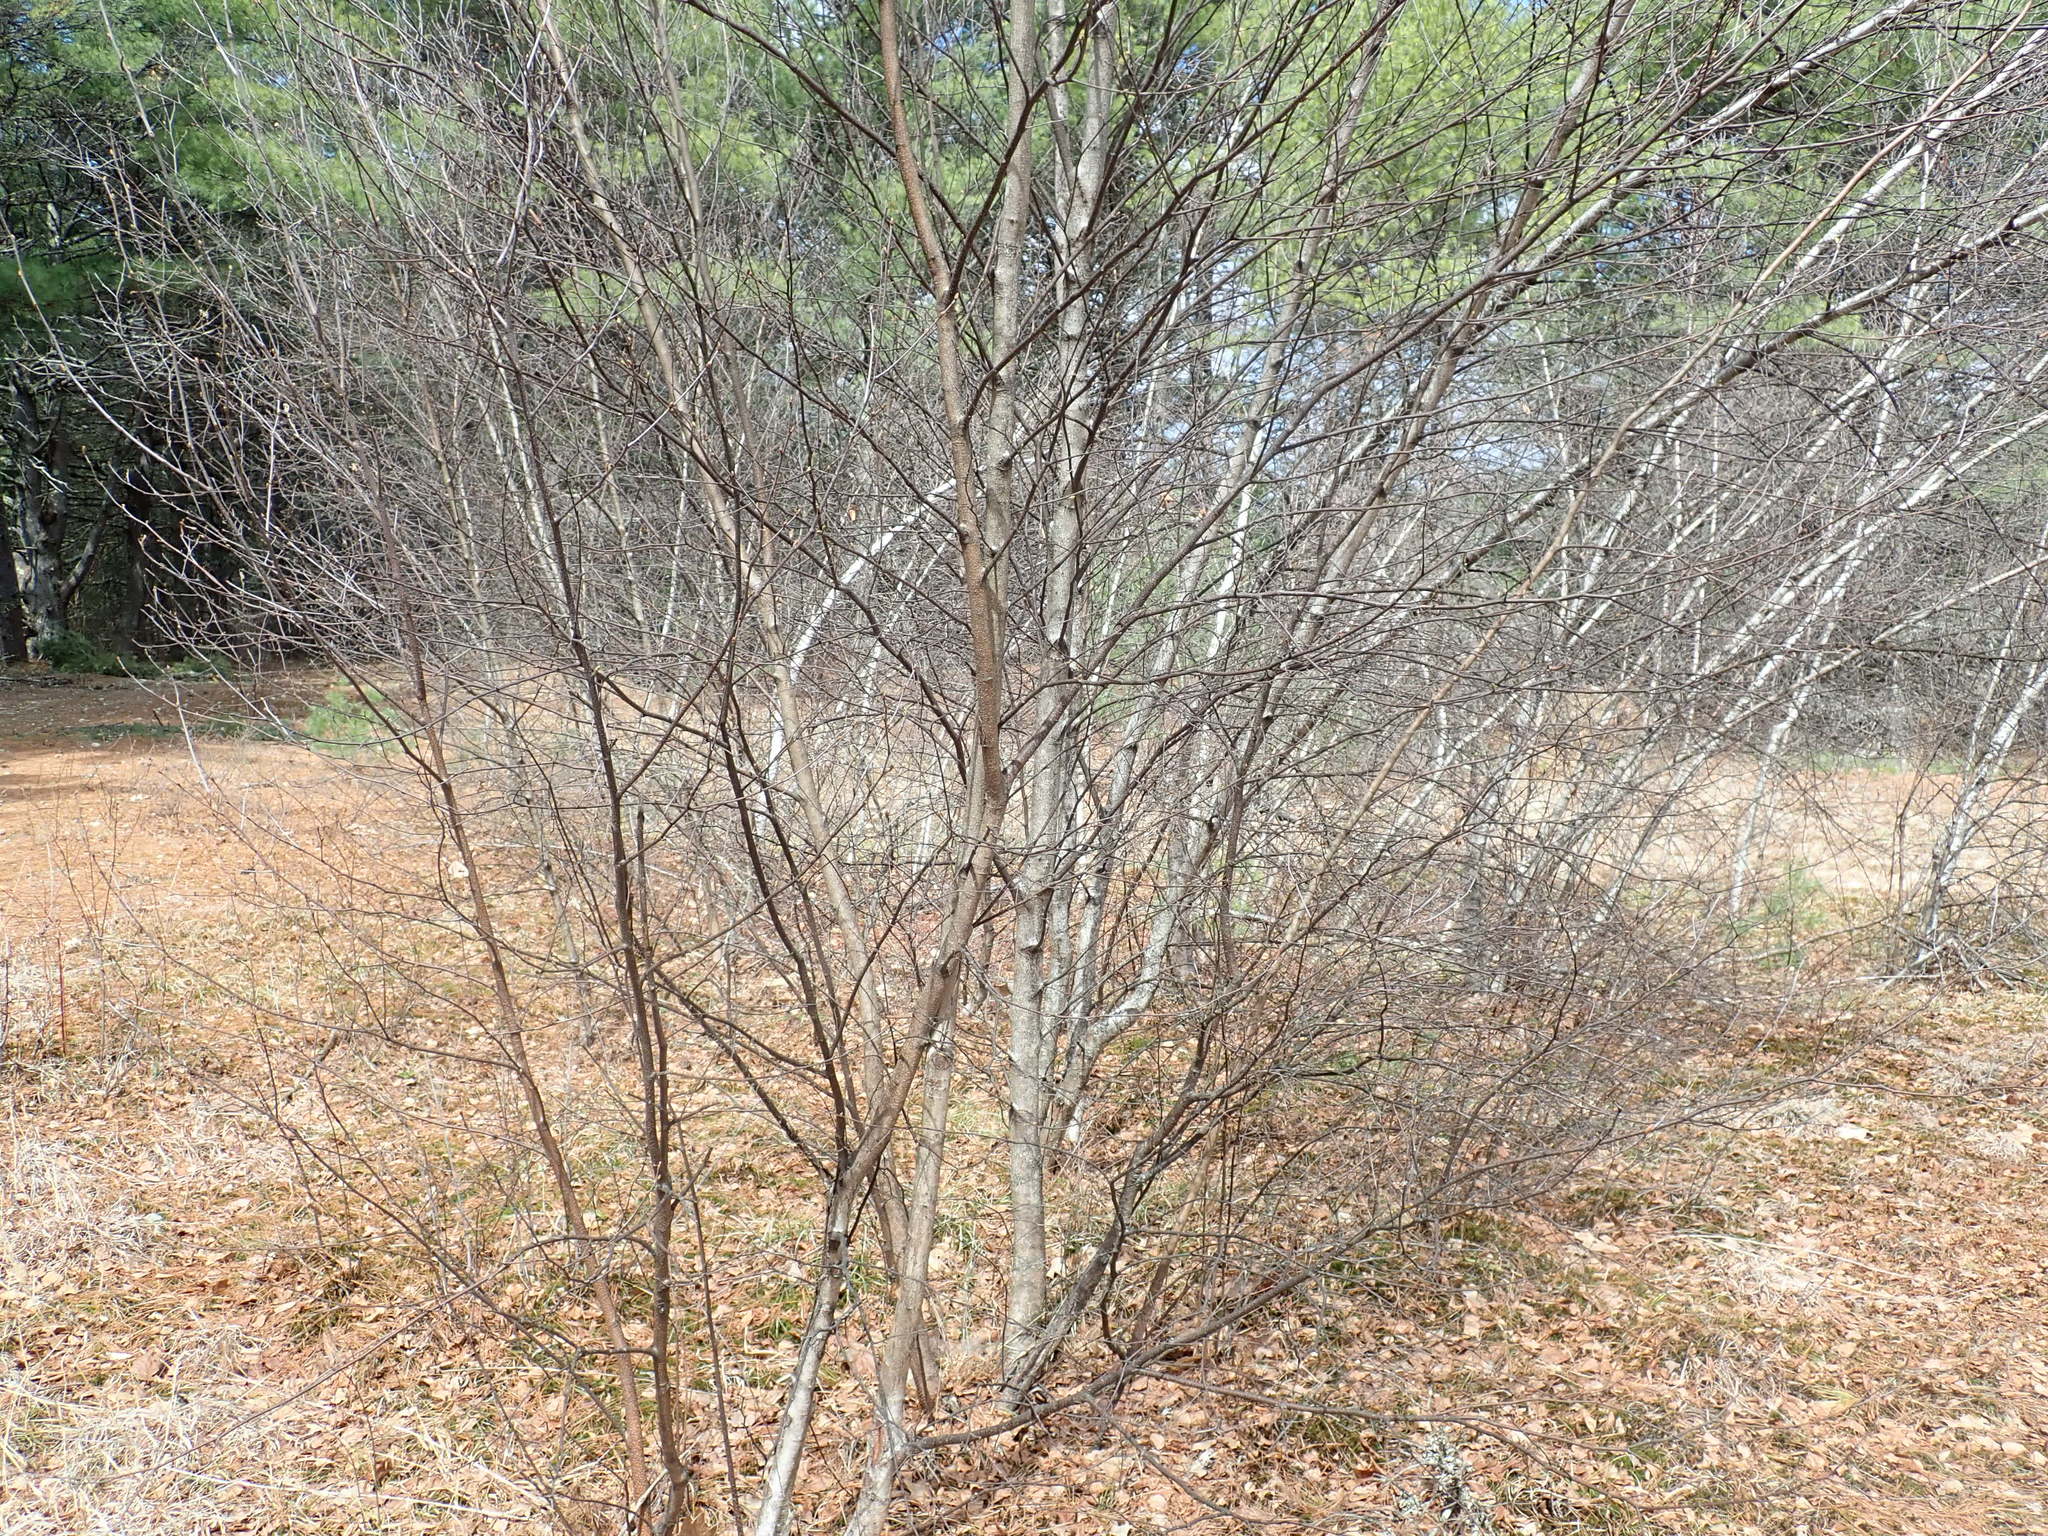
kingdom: Plantae
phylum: Tracheophyta
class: Magnoliopsida
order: Fagales
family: Betulaceae
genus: Betula
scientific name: Betula populifolia
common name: Fire birch
